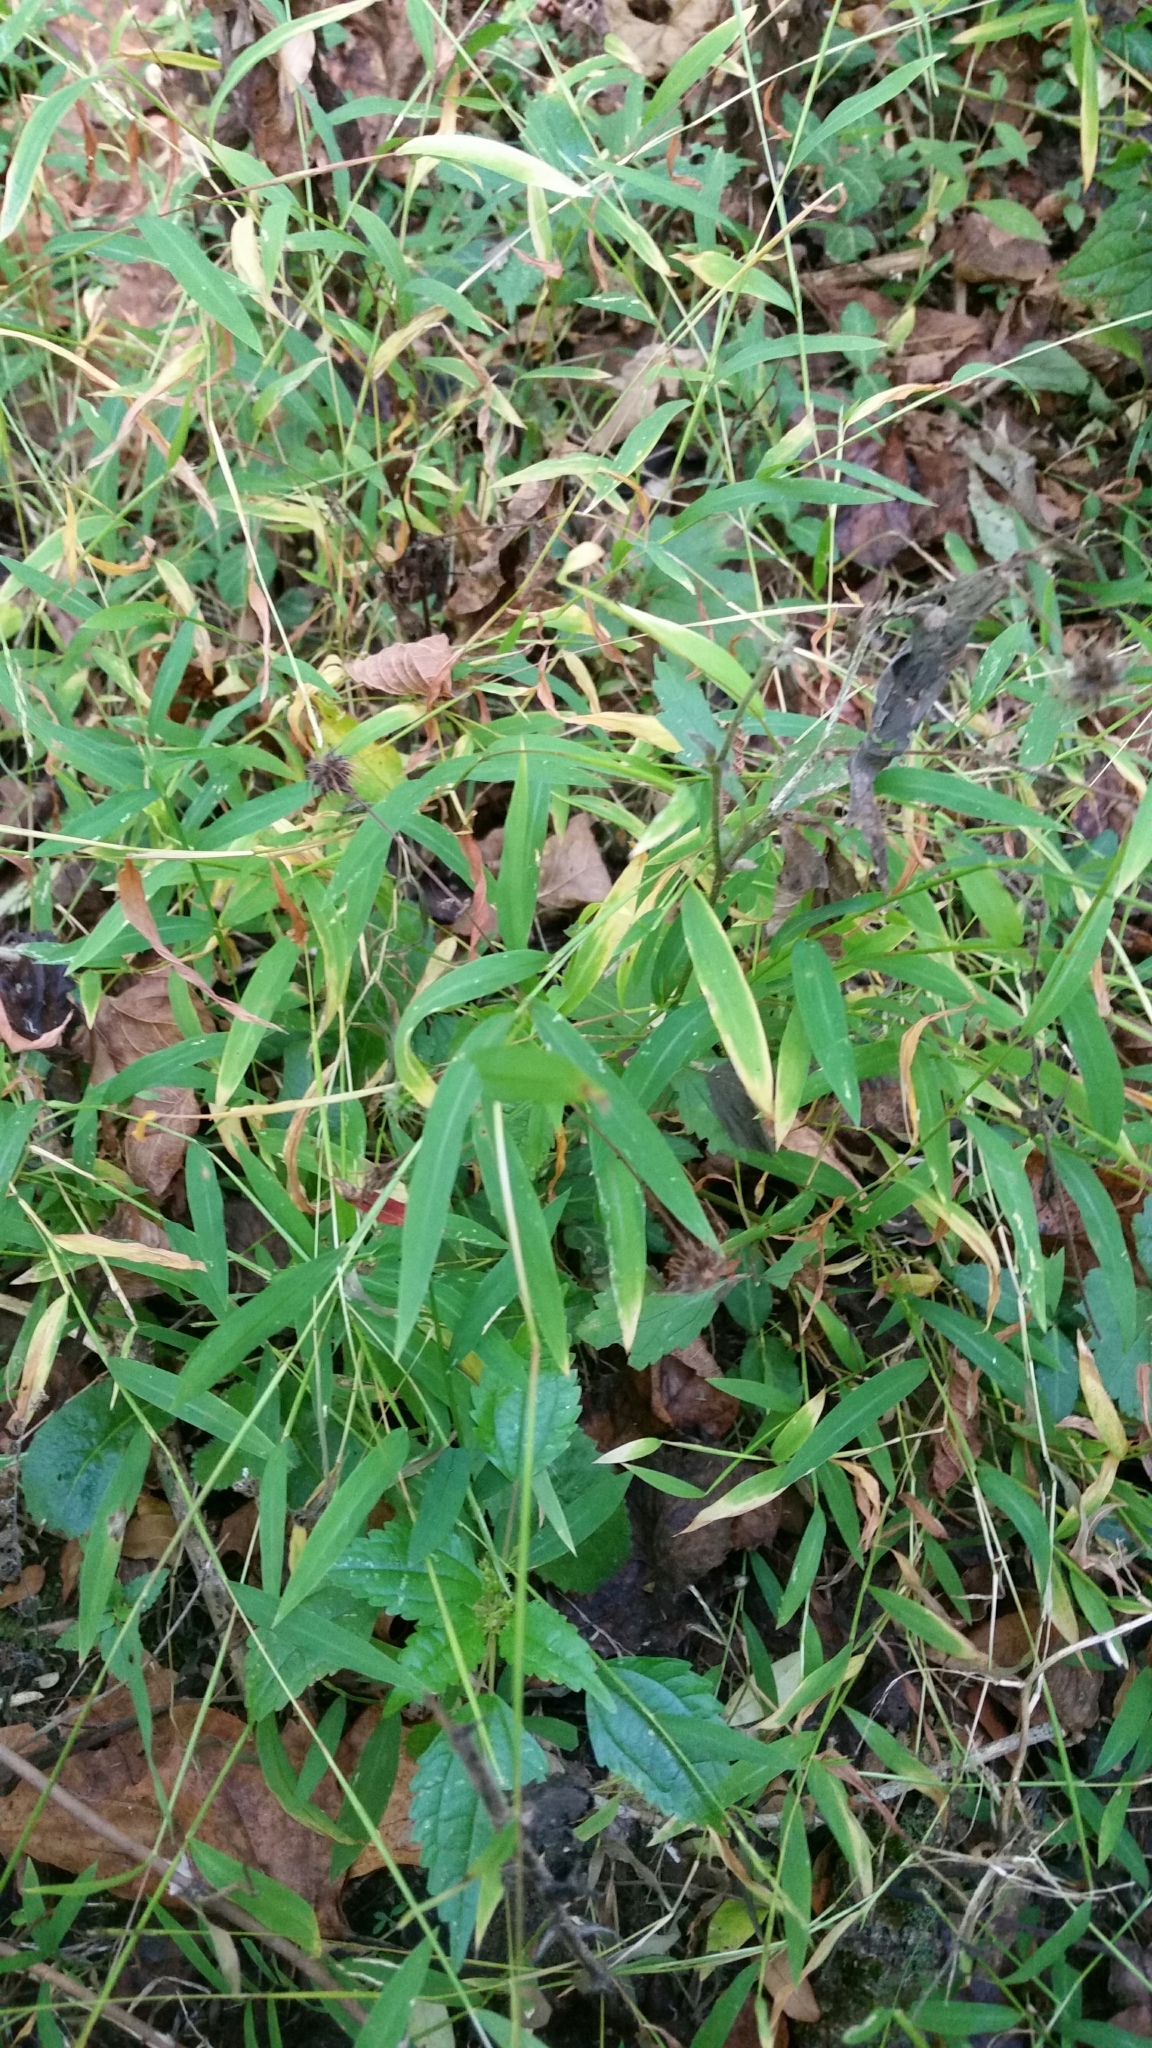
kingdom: Plantae
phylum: Tracheophyta
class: Liliopsida
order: Poales
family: Poaceae
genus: Microstegium
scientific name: Microstegium vimineum
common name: Japanese stiltgrass
